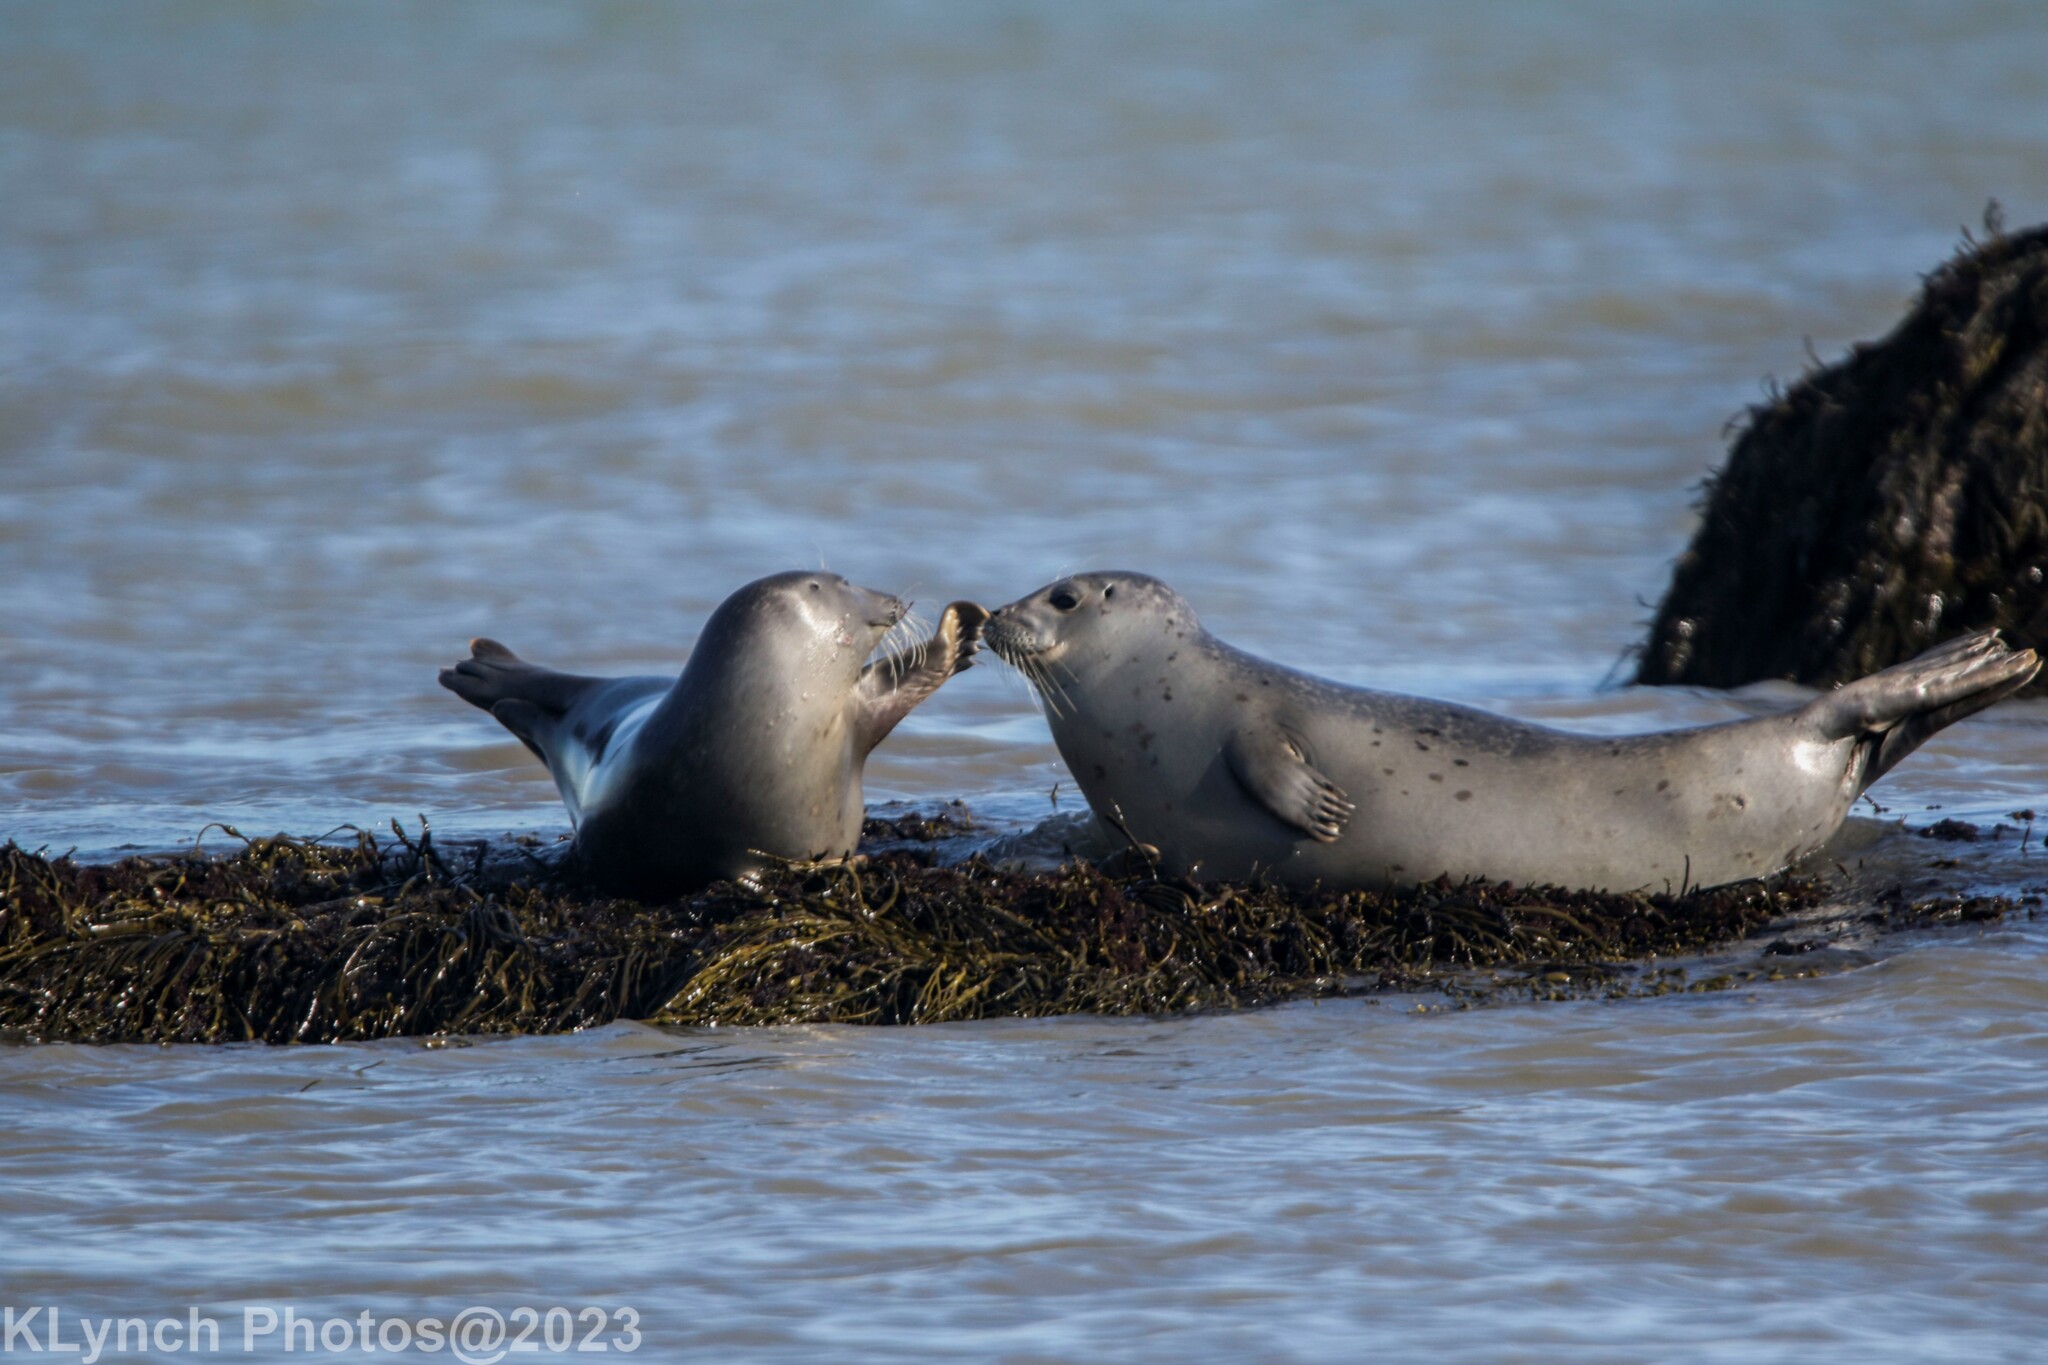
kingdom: Animalia
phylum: Chordata
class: Mammalia
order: Carnivora
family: Phocidae
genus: Phoca
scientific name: Phoca vitulina
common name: Harbor seal
